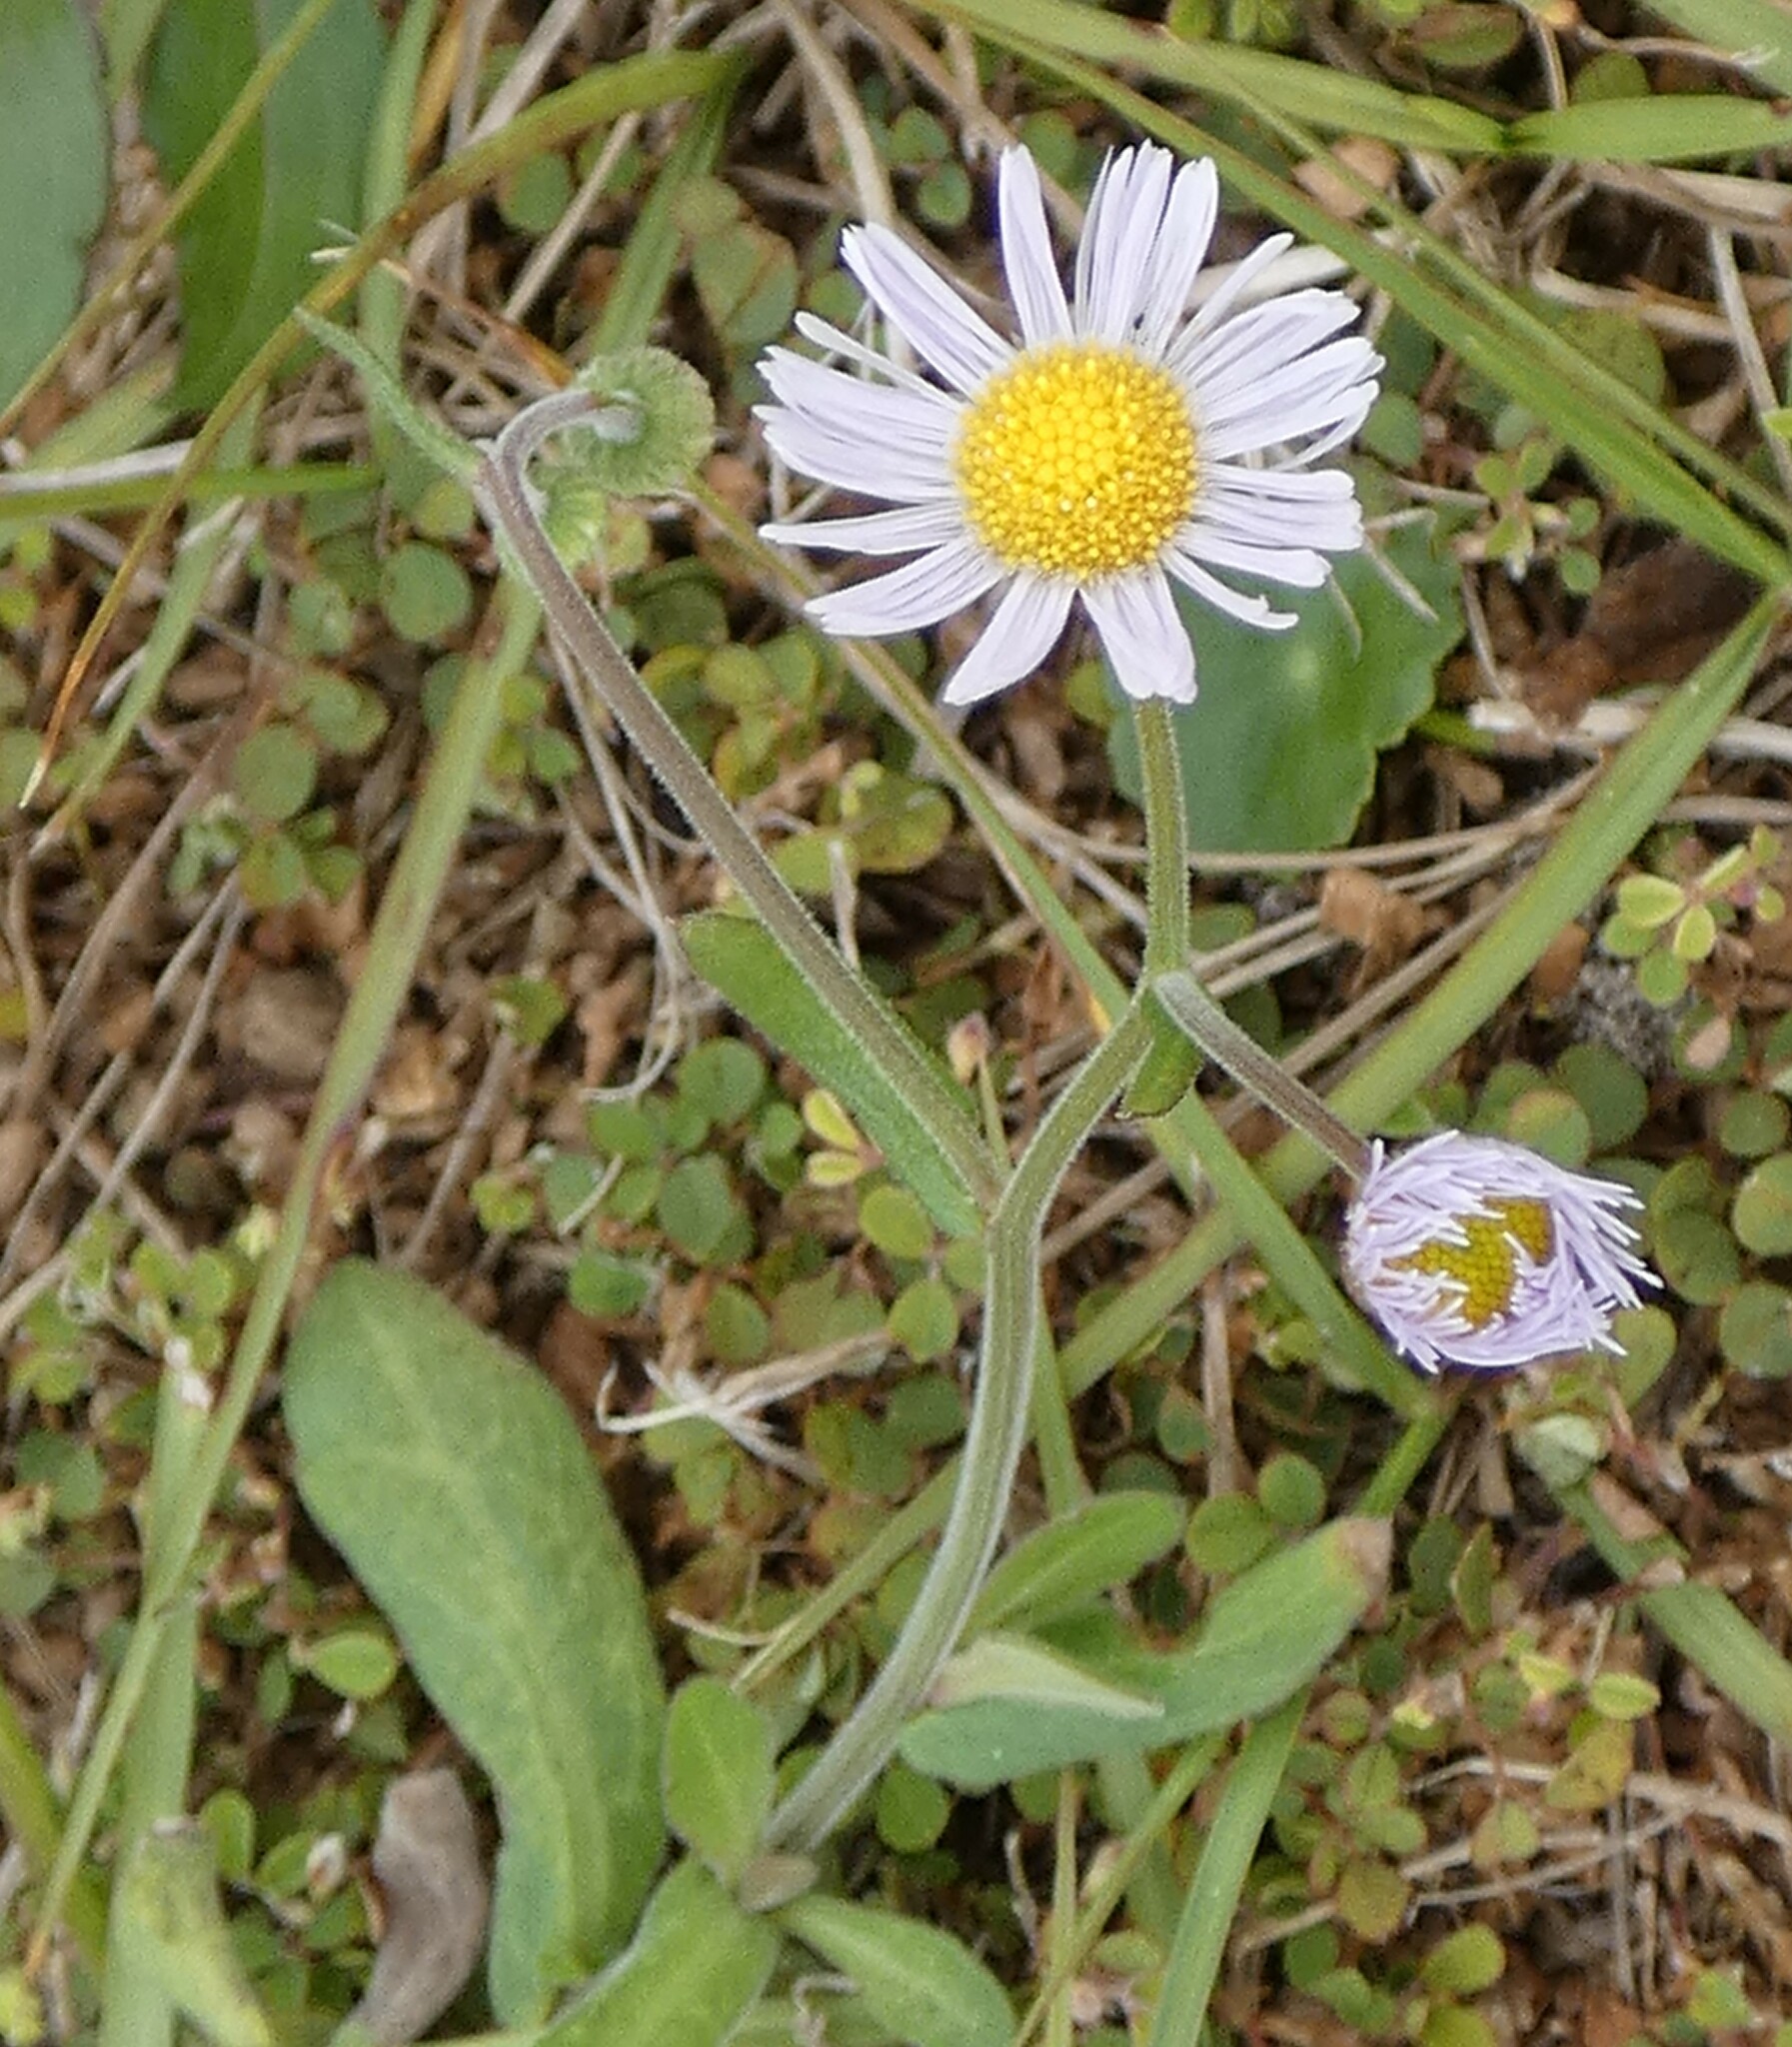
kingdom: Plantae
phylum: Tracheophyta
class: Magnoliopsida
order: Asterales
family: Asteraceae
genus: Erigeron
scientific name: Erigeron quercifolius
